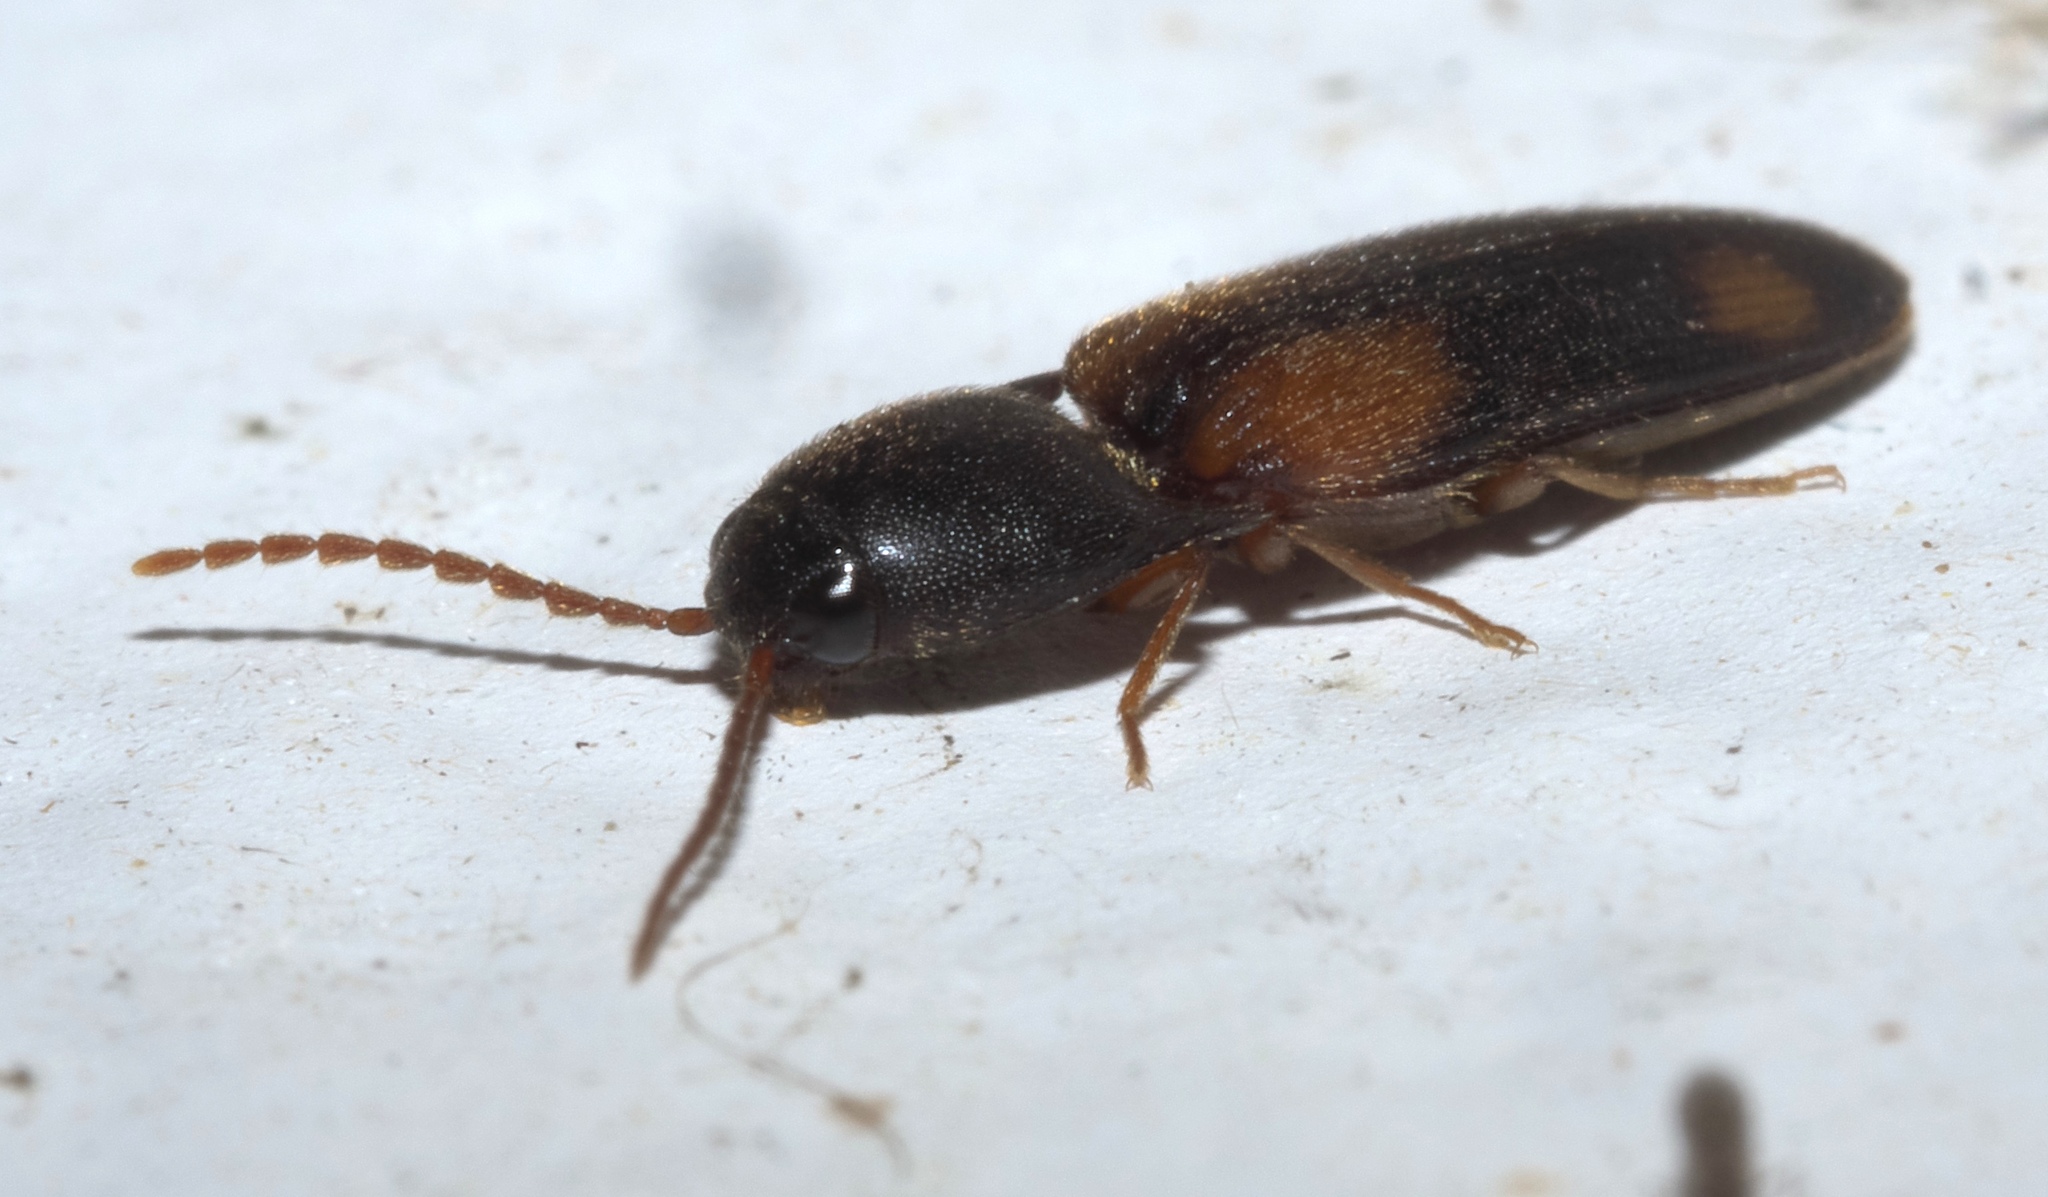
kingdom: Animalia
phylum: Arthropoda
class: Insecta
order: Coleoptera
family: Elateridae
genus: Anchastus
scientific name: Anchastus binus
